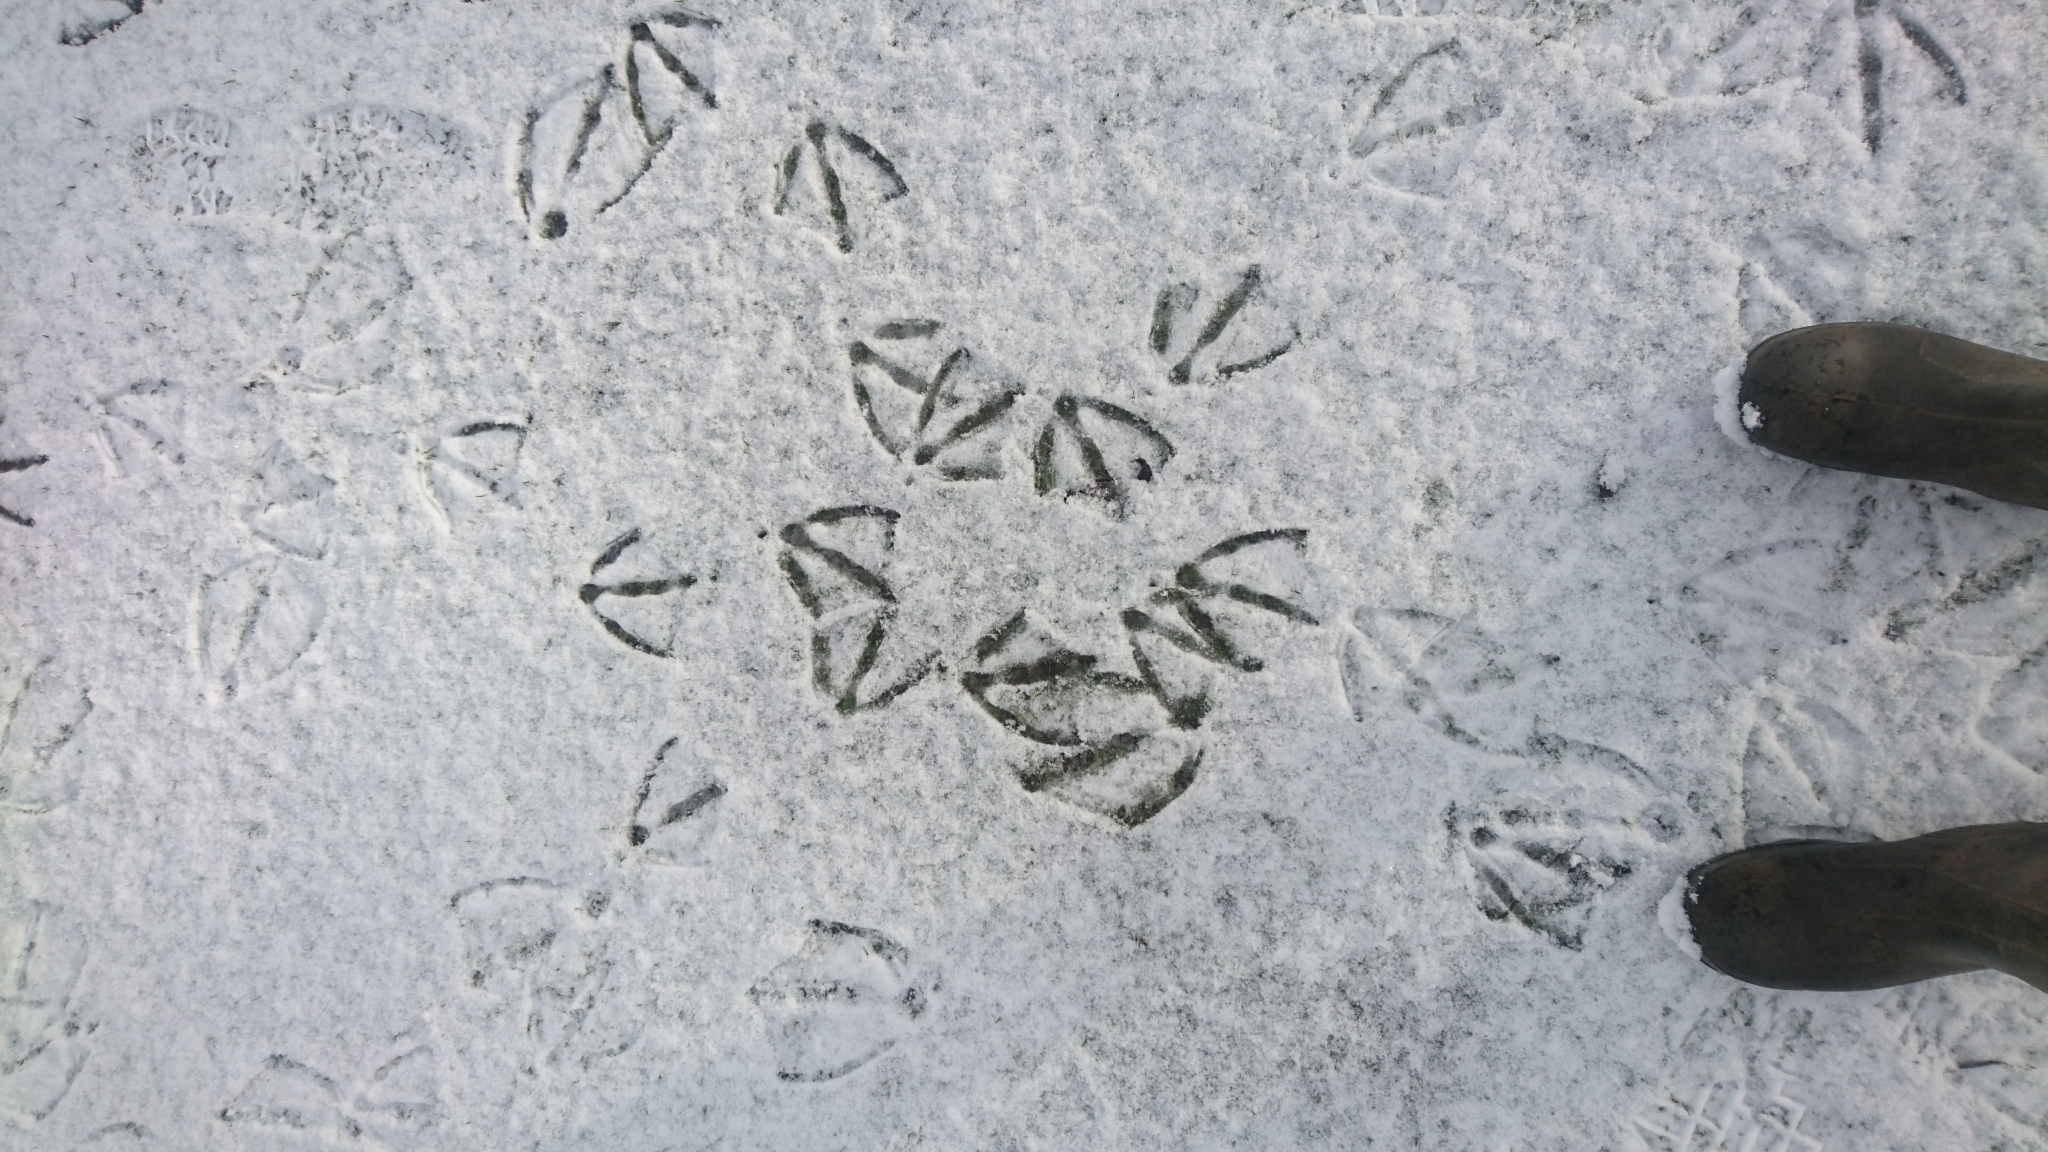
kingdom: Animalia
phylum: Chordata
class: Aves
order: Anseriformes
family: Anatidae
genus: Cygnus
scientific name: Cygnus olor
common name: Mute swan
